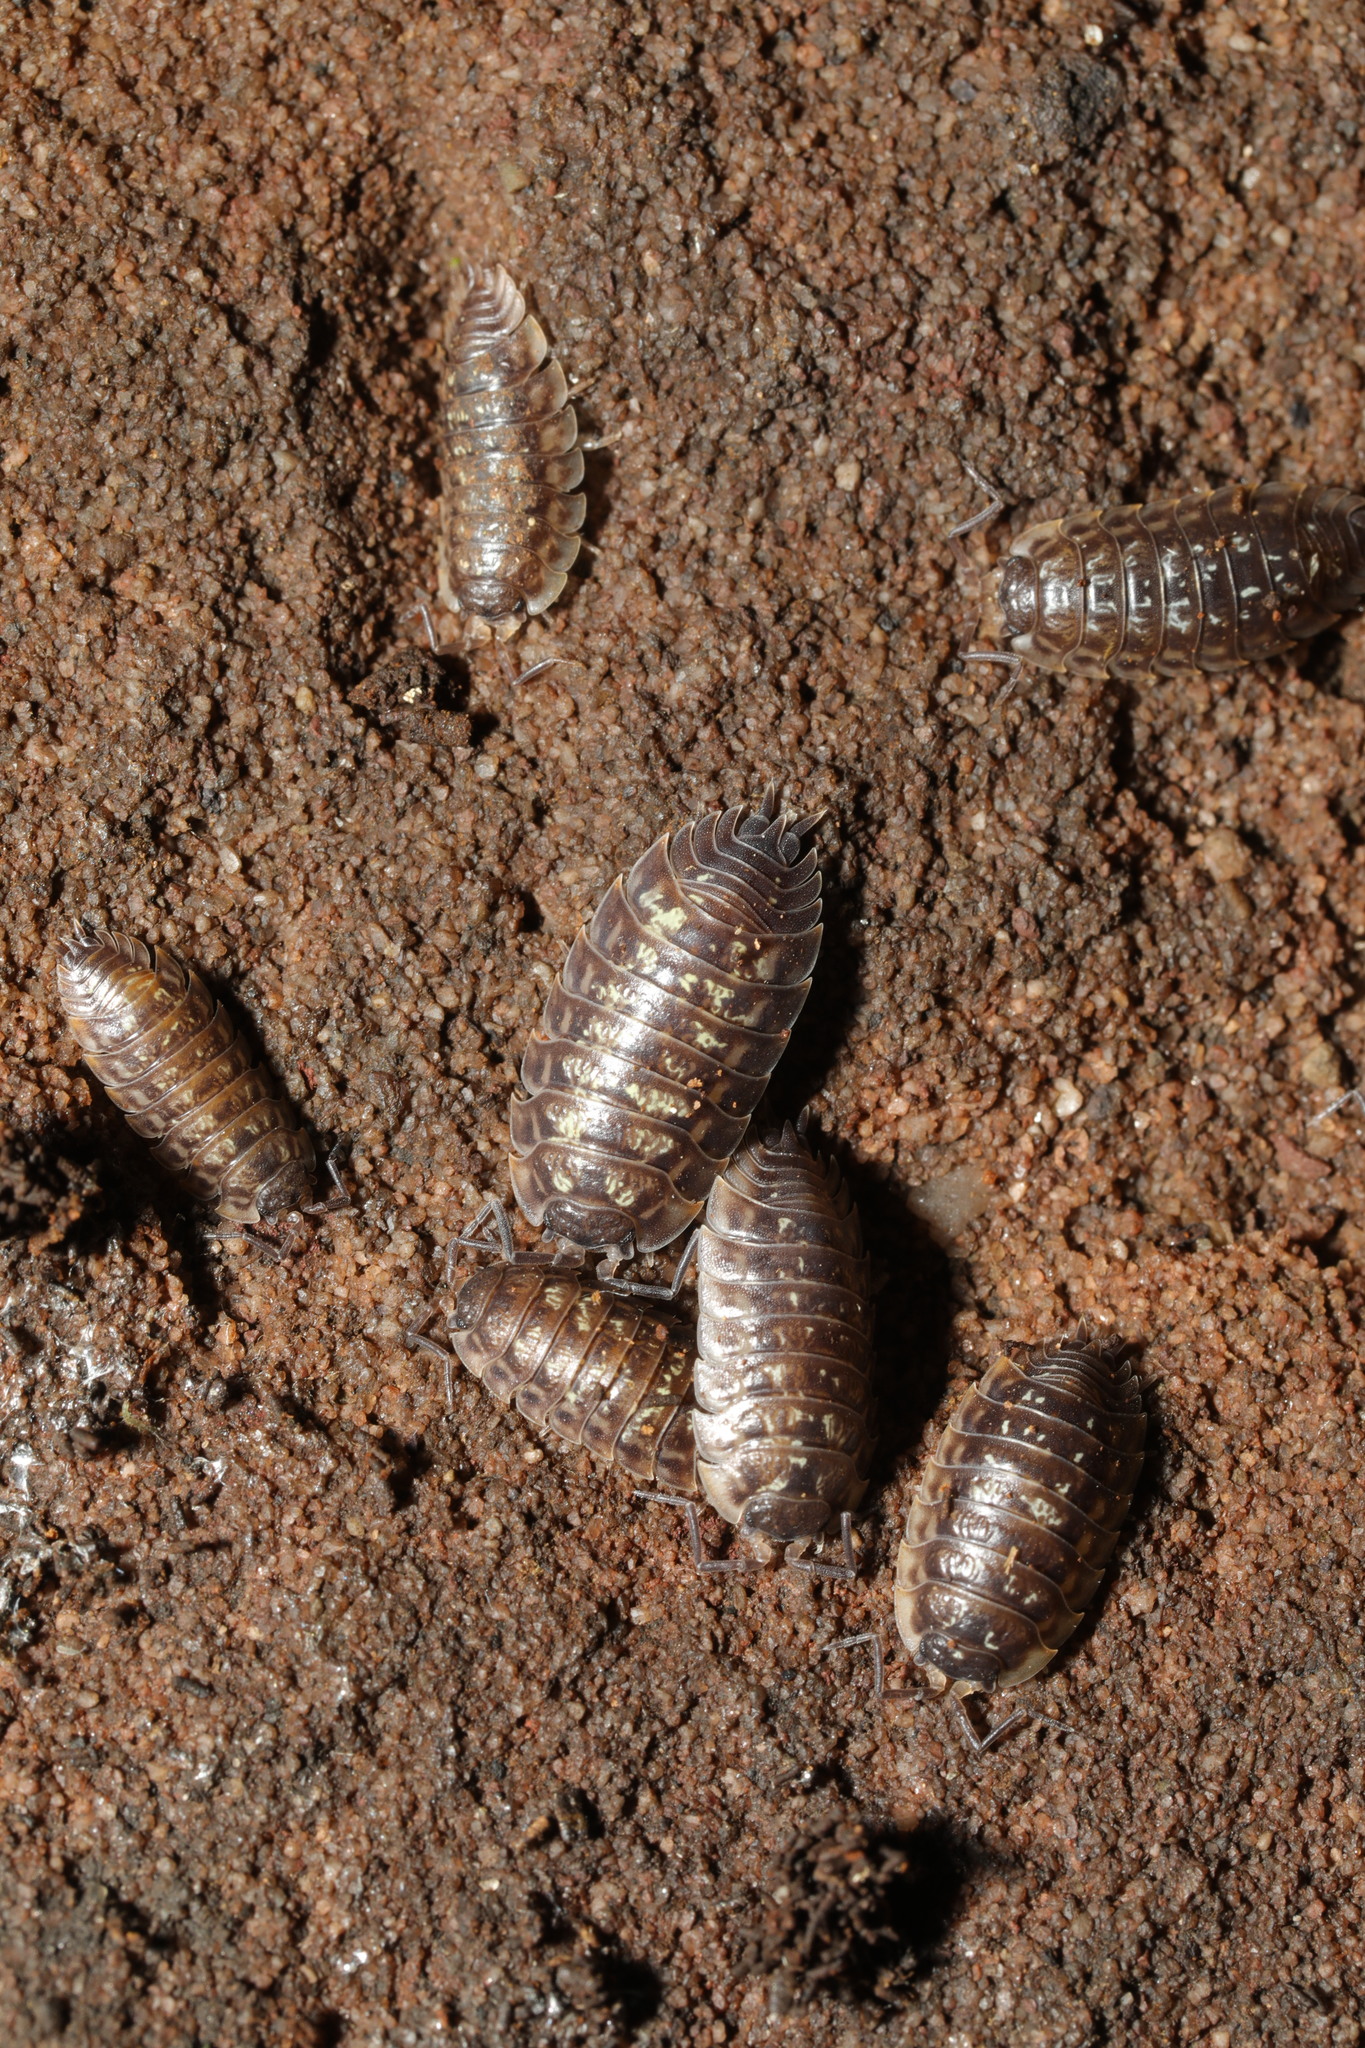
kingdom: Animalia
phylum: Arthropoda
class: Malacostraca
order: Isopoda
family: Oniscidae
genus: Oniscus
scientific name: Oniscus asellus
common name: Common shiny woodlouse
